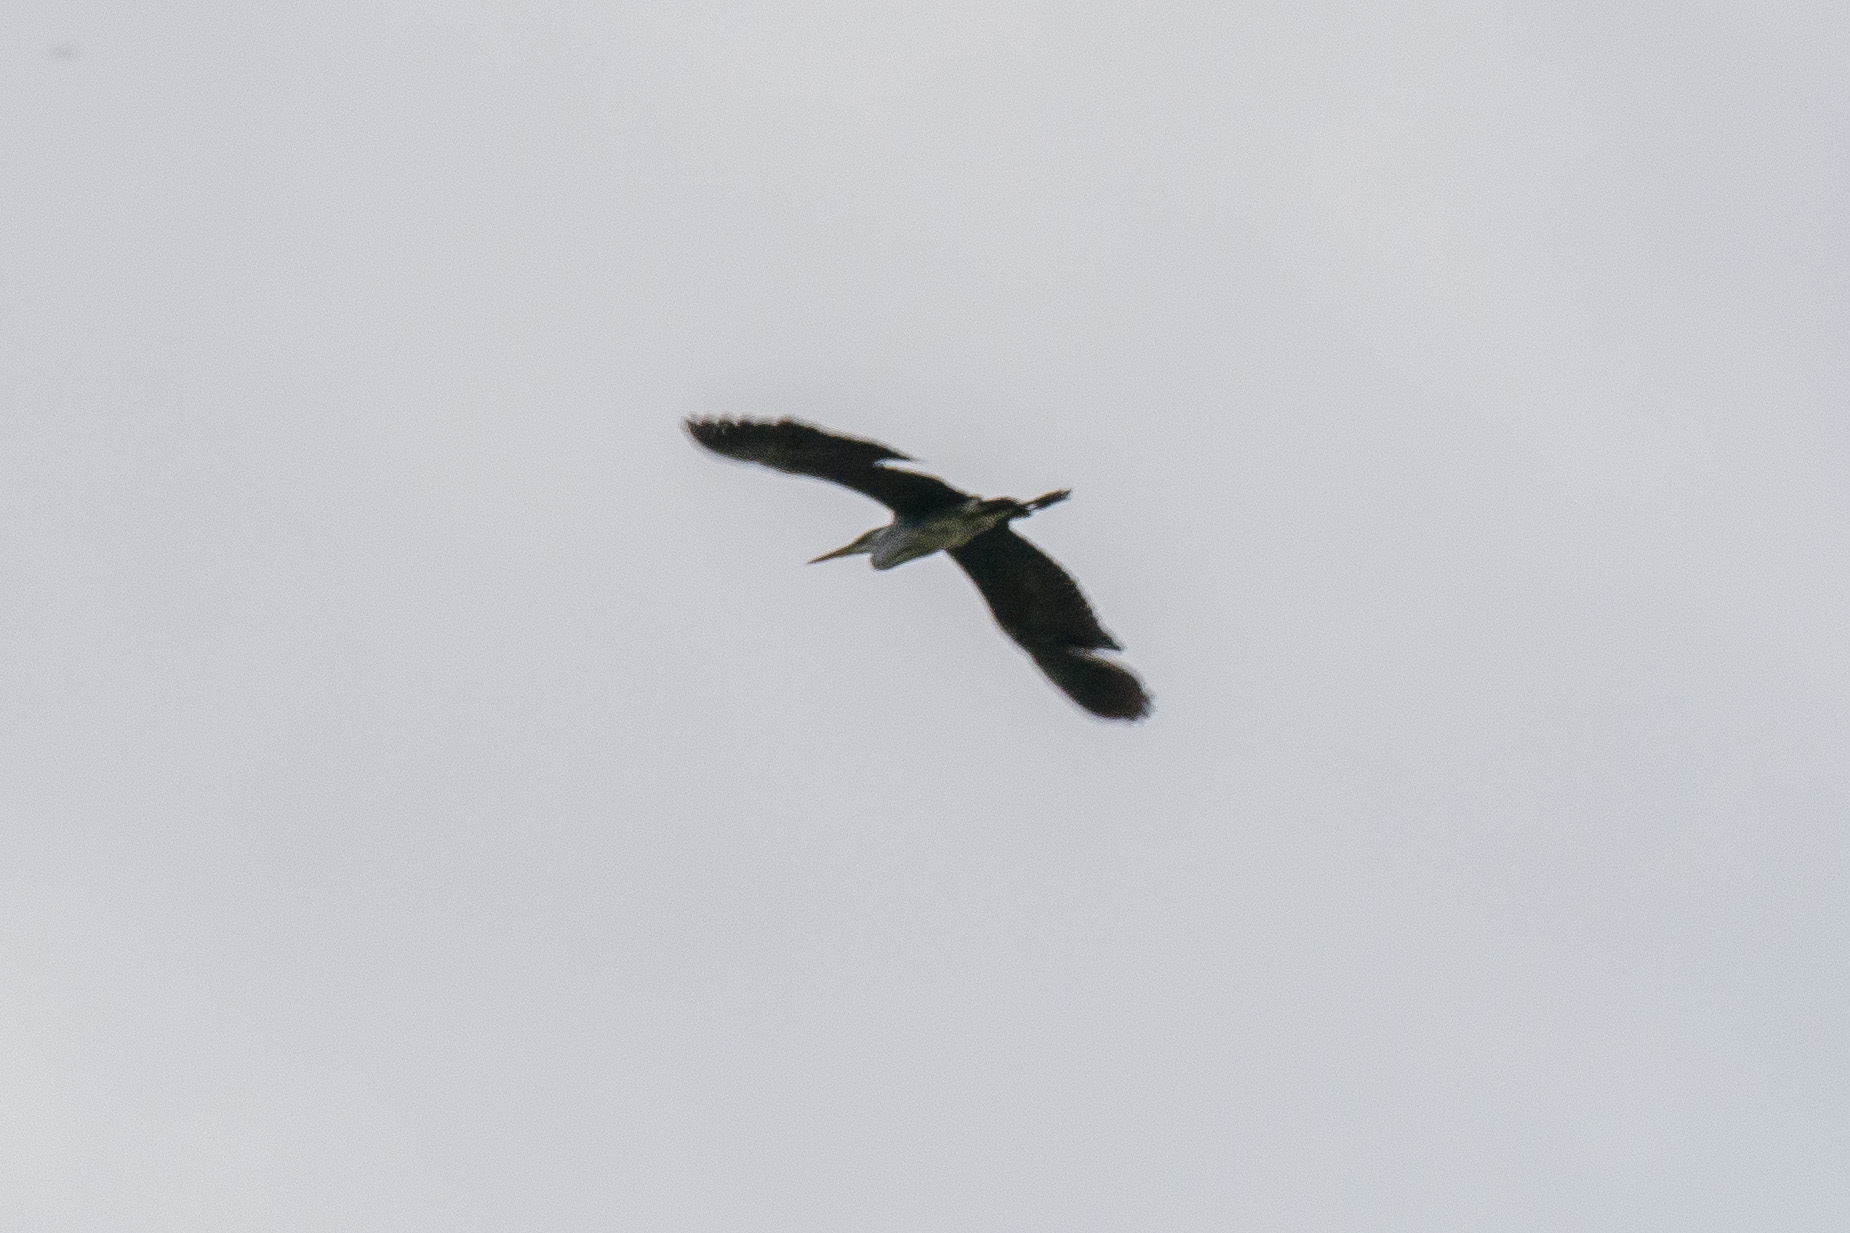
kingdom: Animalia
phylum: Chordata
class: Aves
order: Pelecaniformes
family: Ardeidae
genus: Ardea
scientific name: Ardea cinerea
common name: Grey heron
